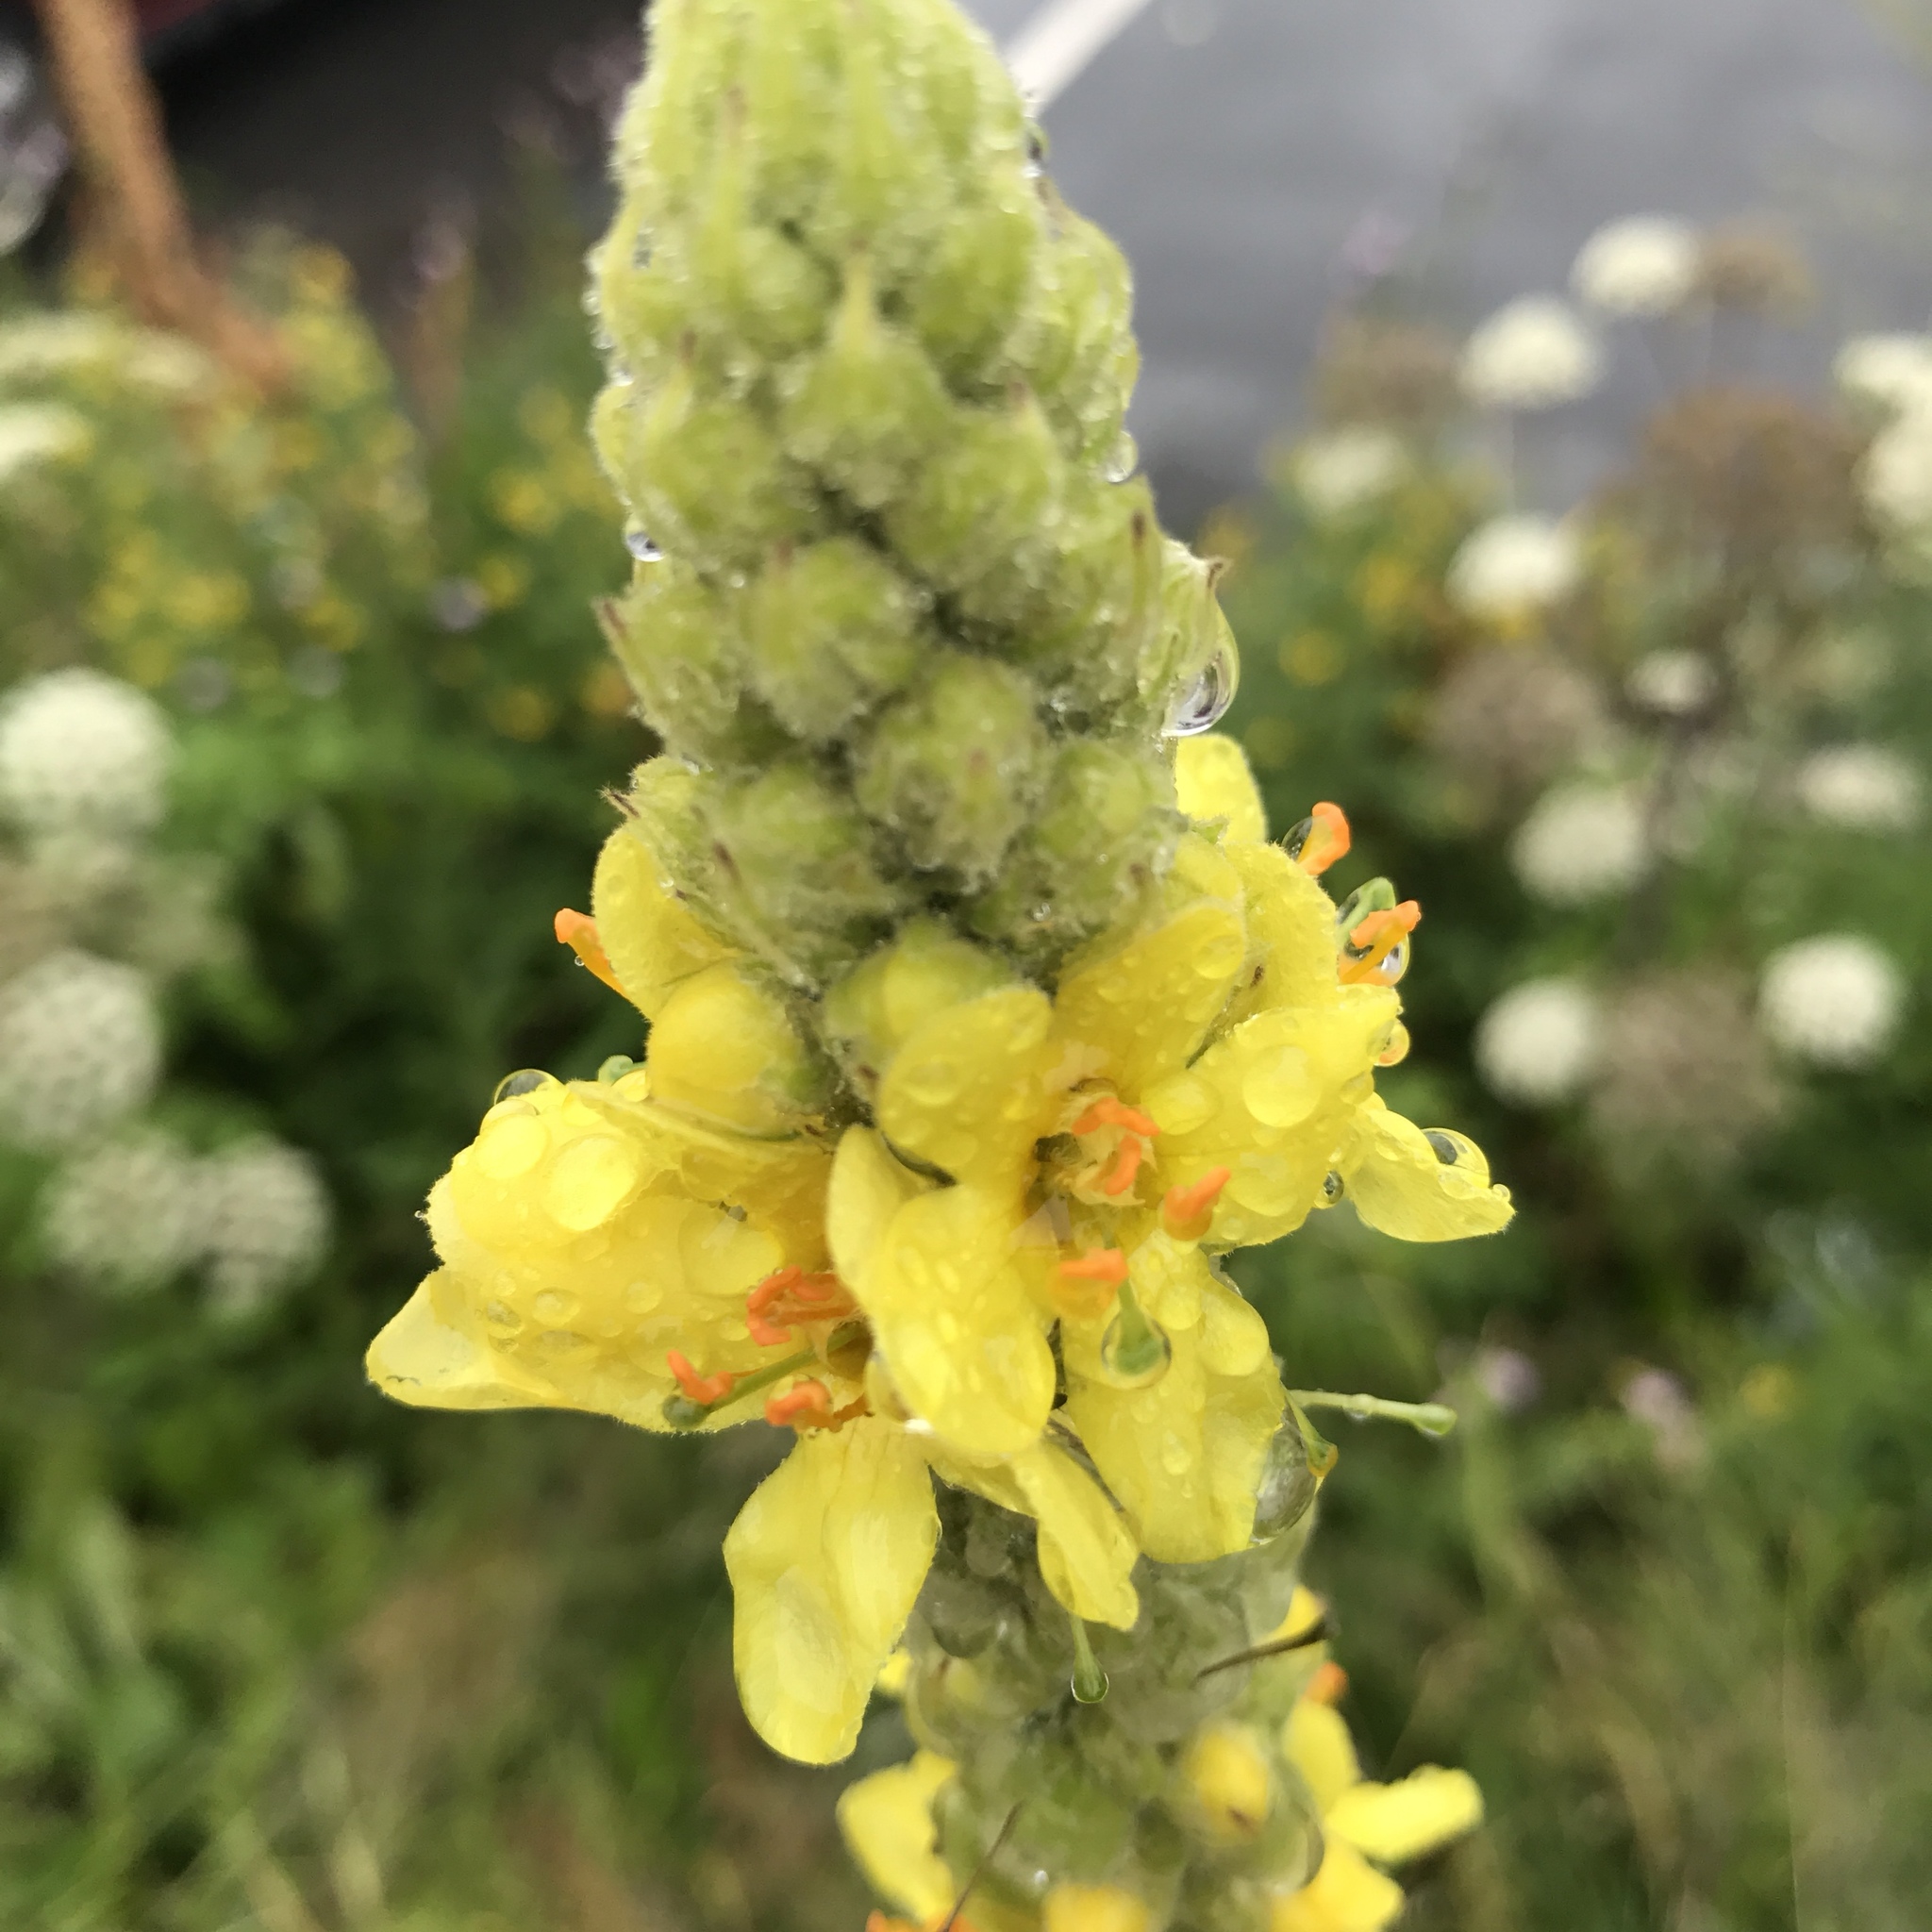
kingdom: Plantae
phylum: Tracheophyta
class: Magnoliopsida
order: Lamiales
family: Scrophulariaceae
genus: Verbascum
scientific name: Verbascum thapsus
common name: Common mullein
